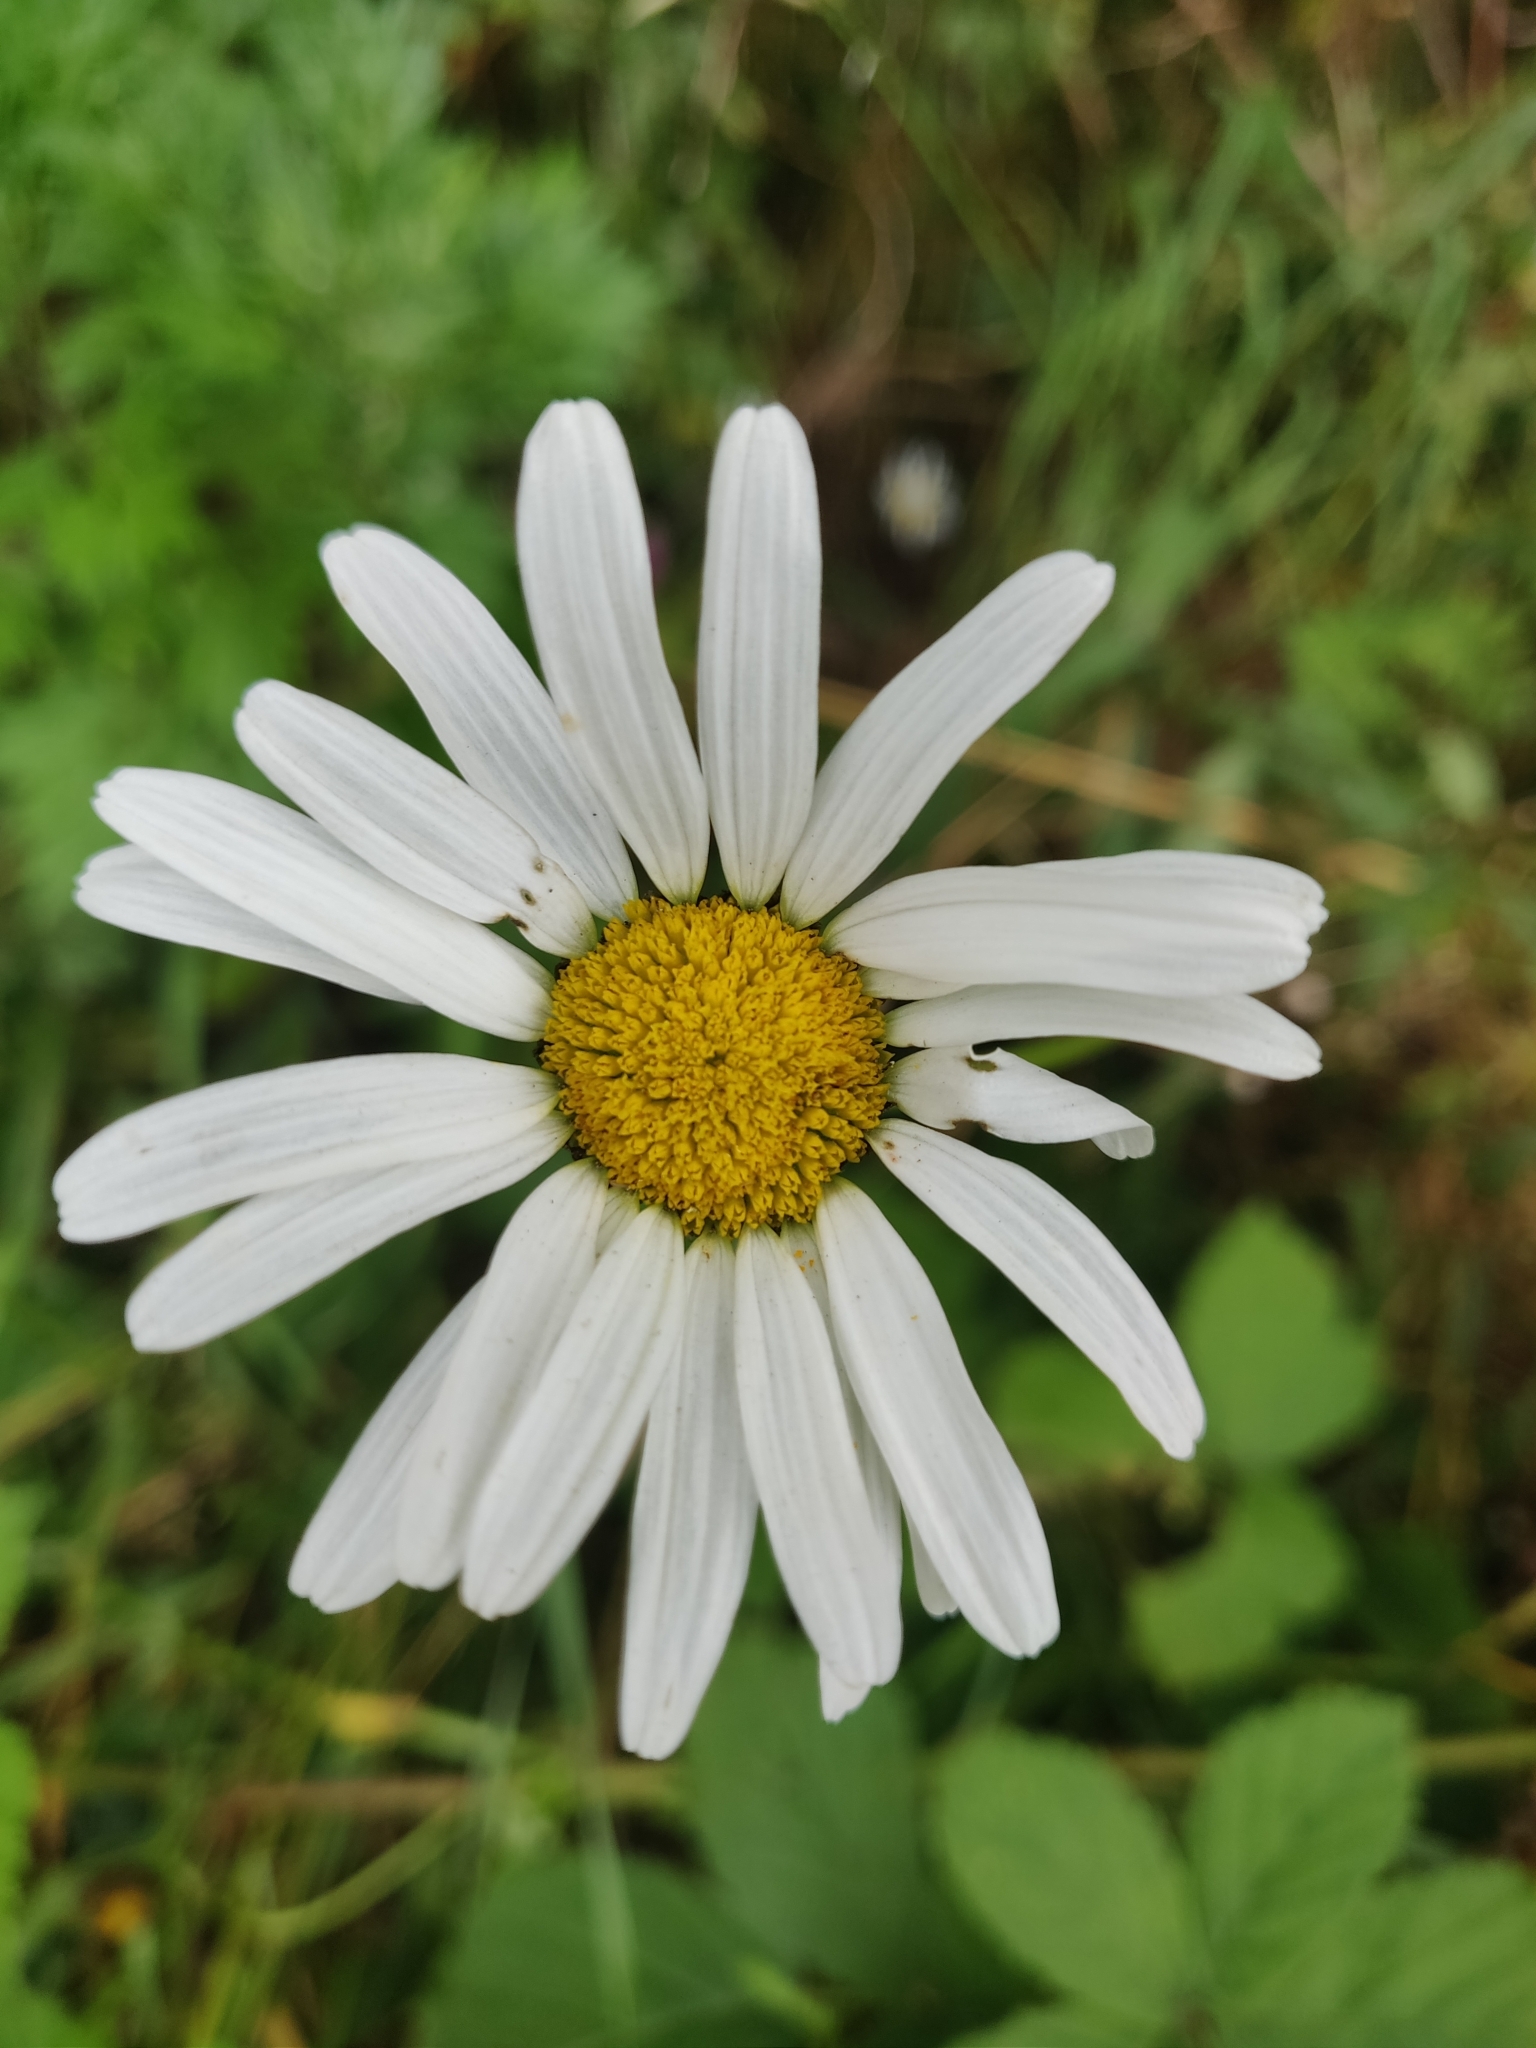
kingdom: Plantae
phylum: Tracheophyta
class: Magnoliopsida
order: Asterales
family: Asteraceae
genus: Leucanthemum
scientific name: Leucanthemum vulgare
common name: Oxeye daisy
